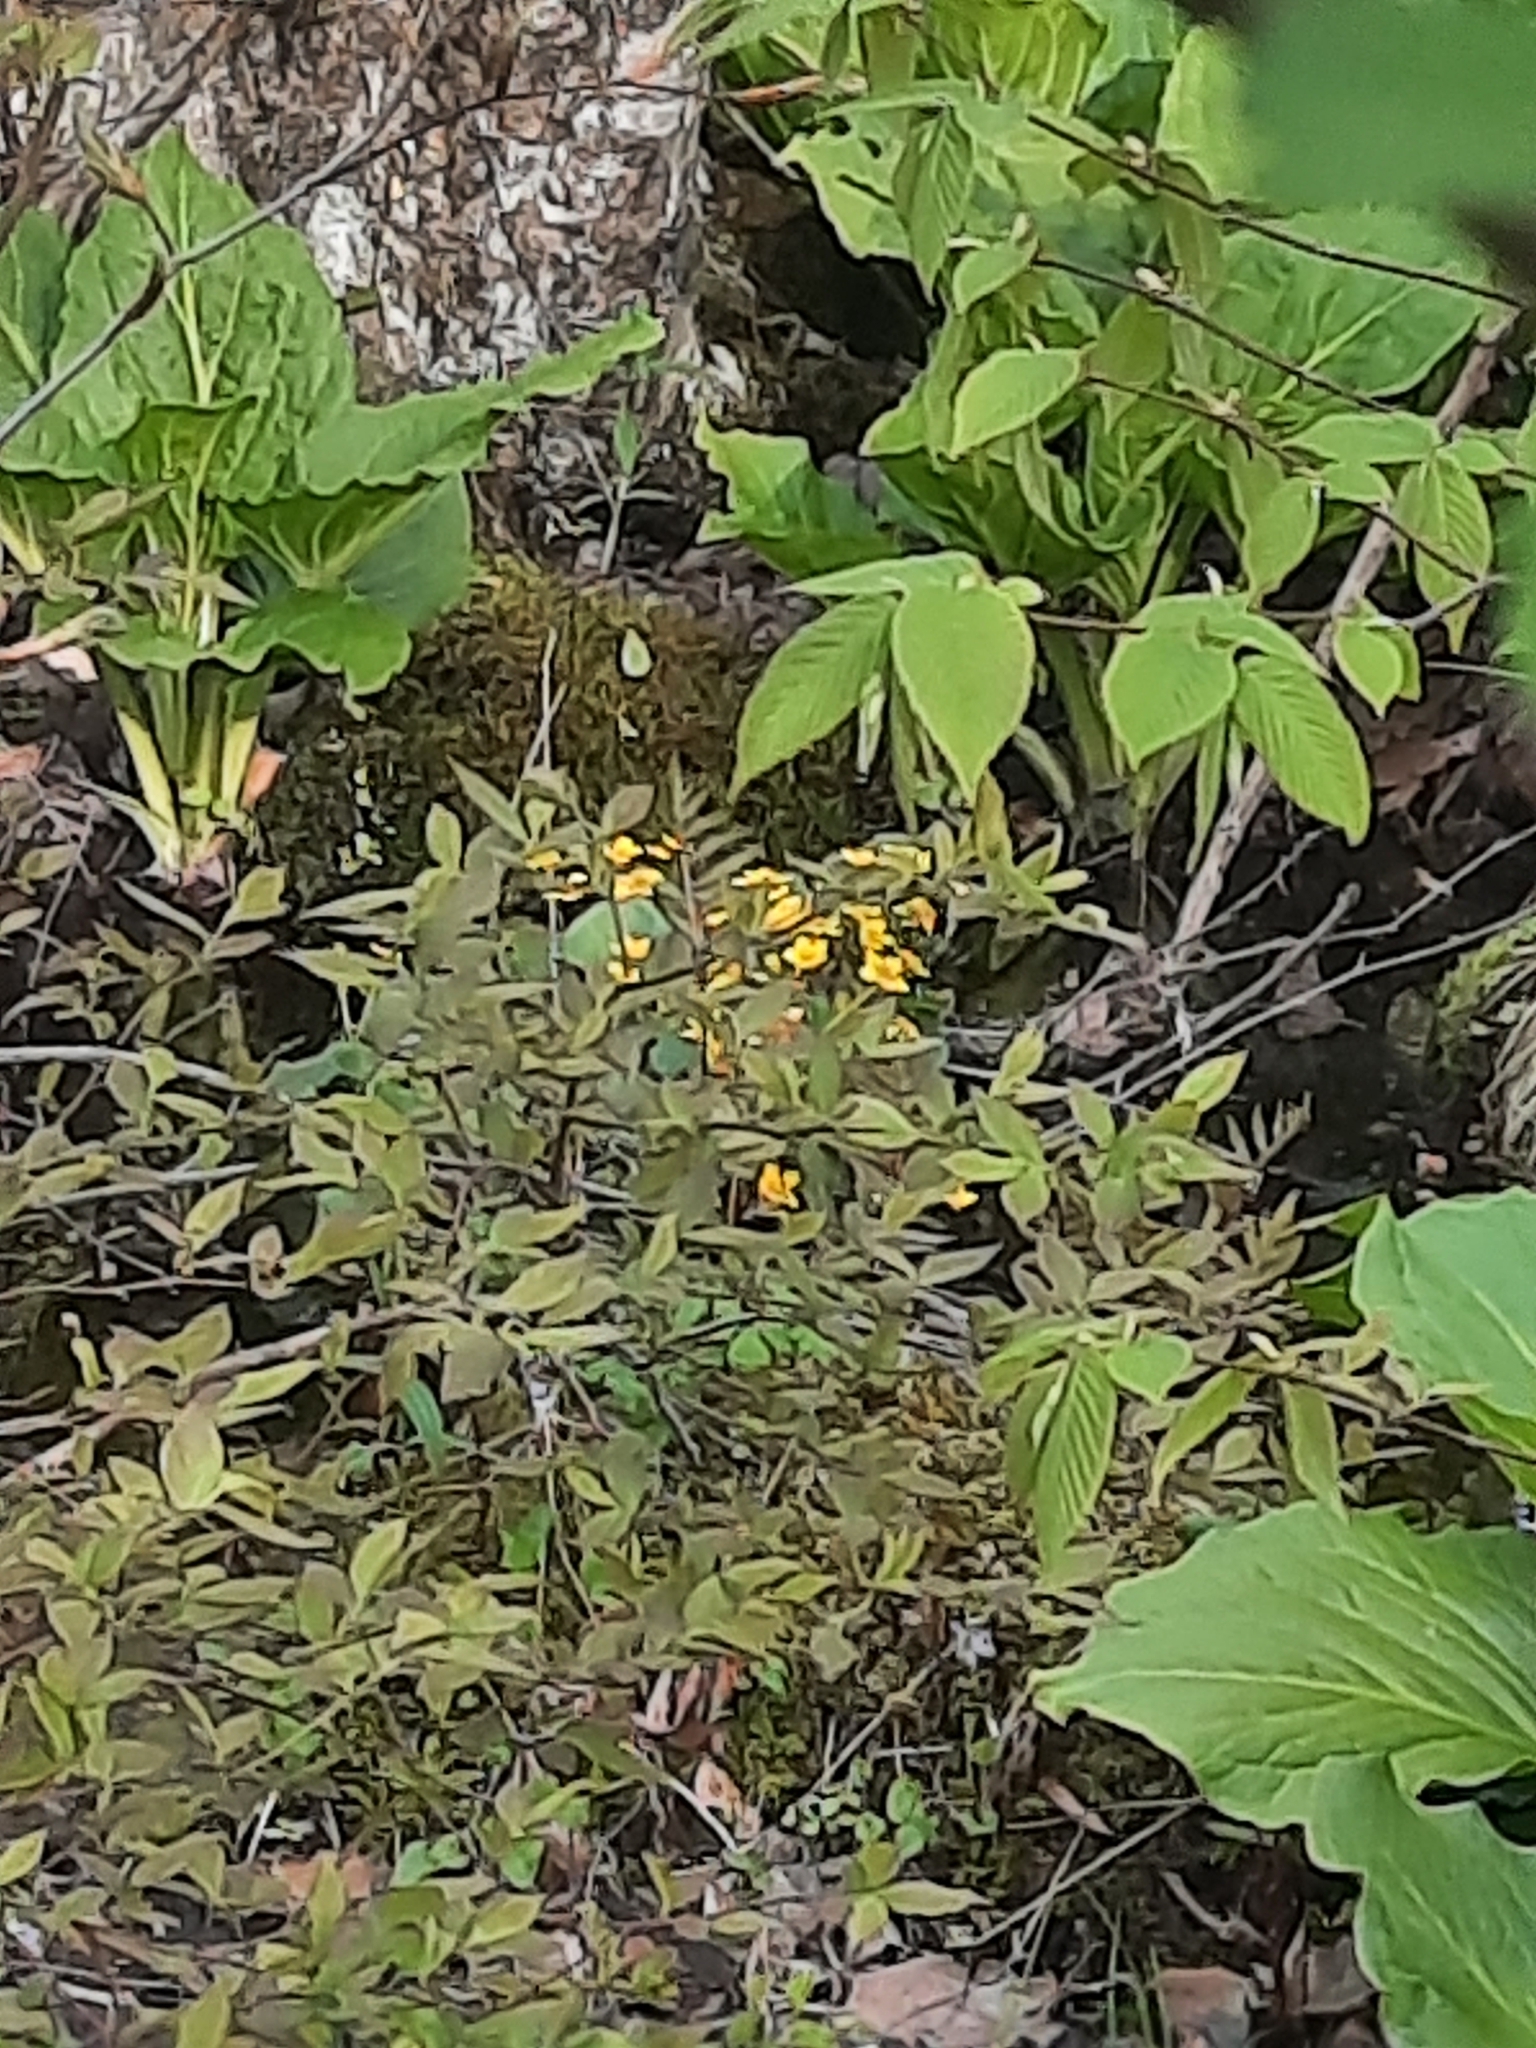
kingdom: Plantae
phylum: Tracheophyta
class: Magnoliopsida
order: Ranunculales
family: Ranunculaceae
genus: Caltha
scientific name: Caltha palustris
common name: Marsh marigold
